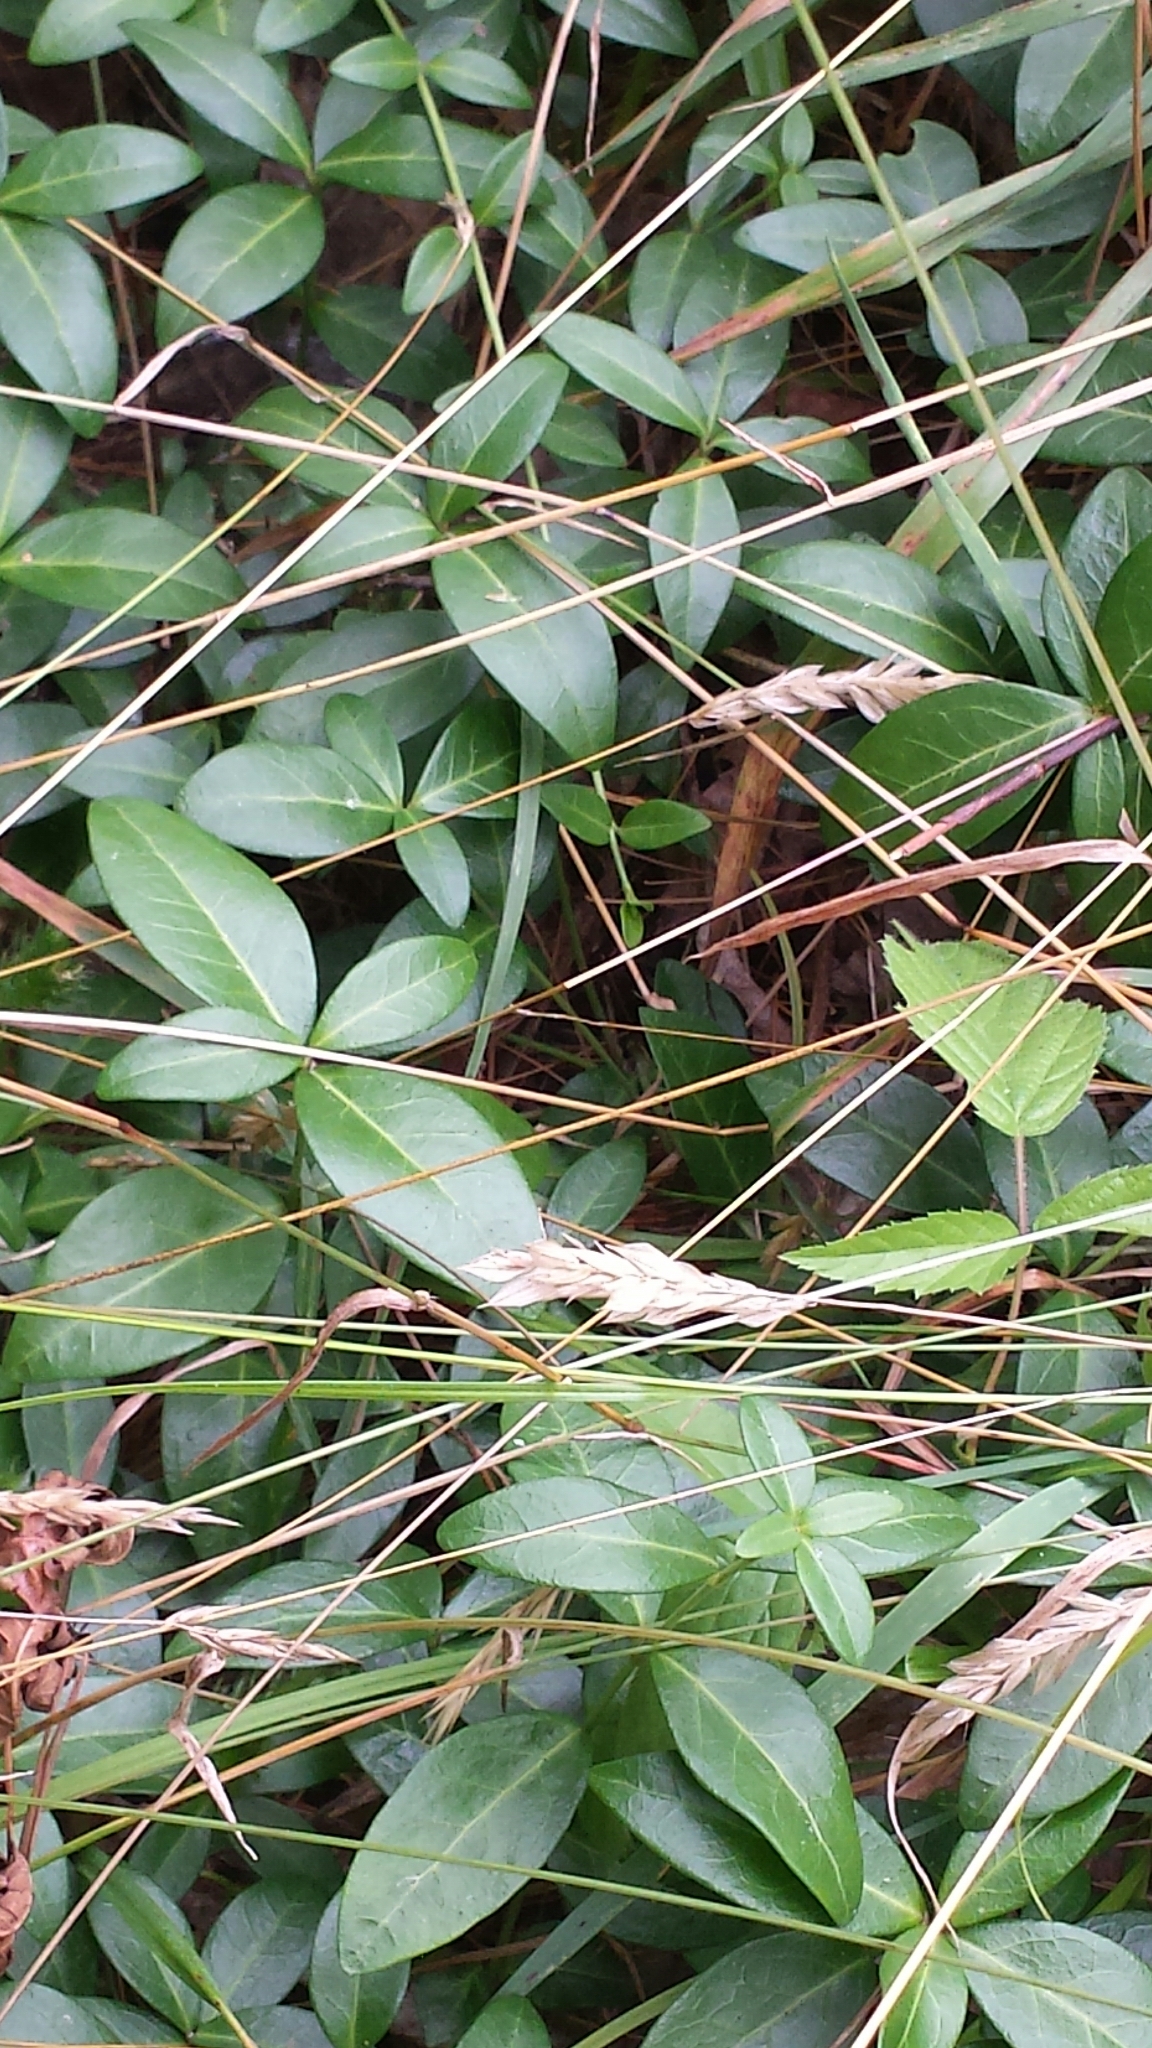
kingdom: Plantae
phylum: Tracheophyta
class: Magnoliopsida
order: Gentianales
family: Apocynaceae
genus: Vinca
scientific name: Vinca minor
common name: Lesser periwinkle
